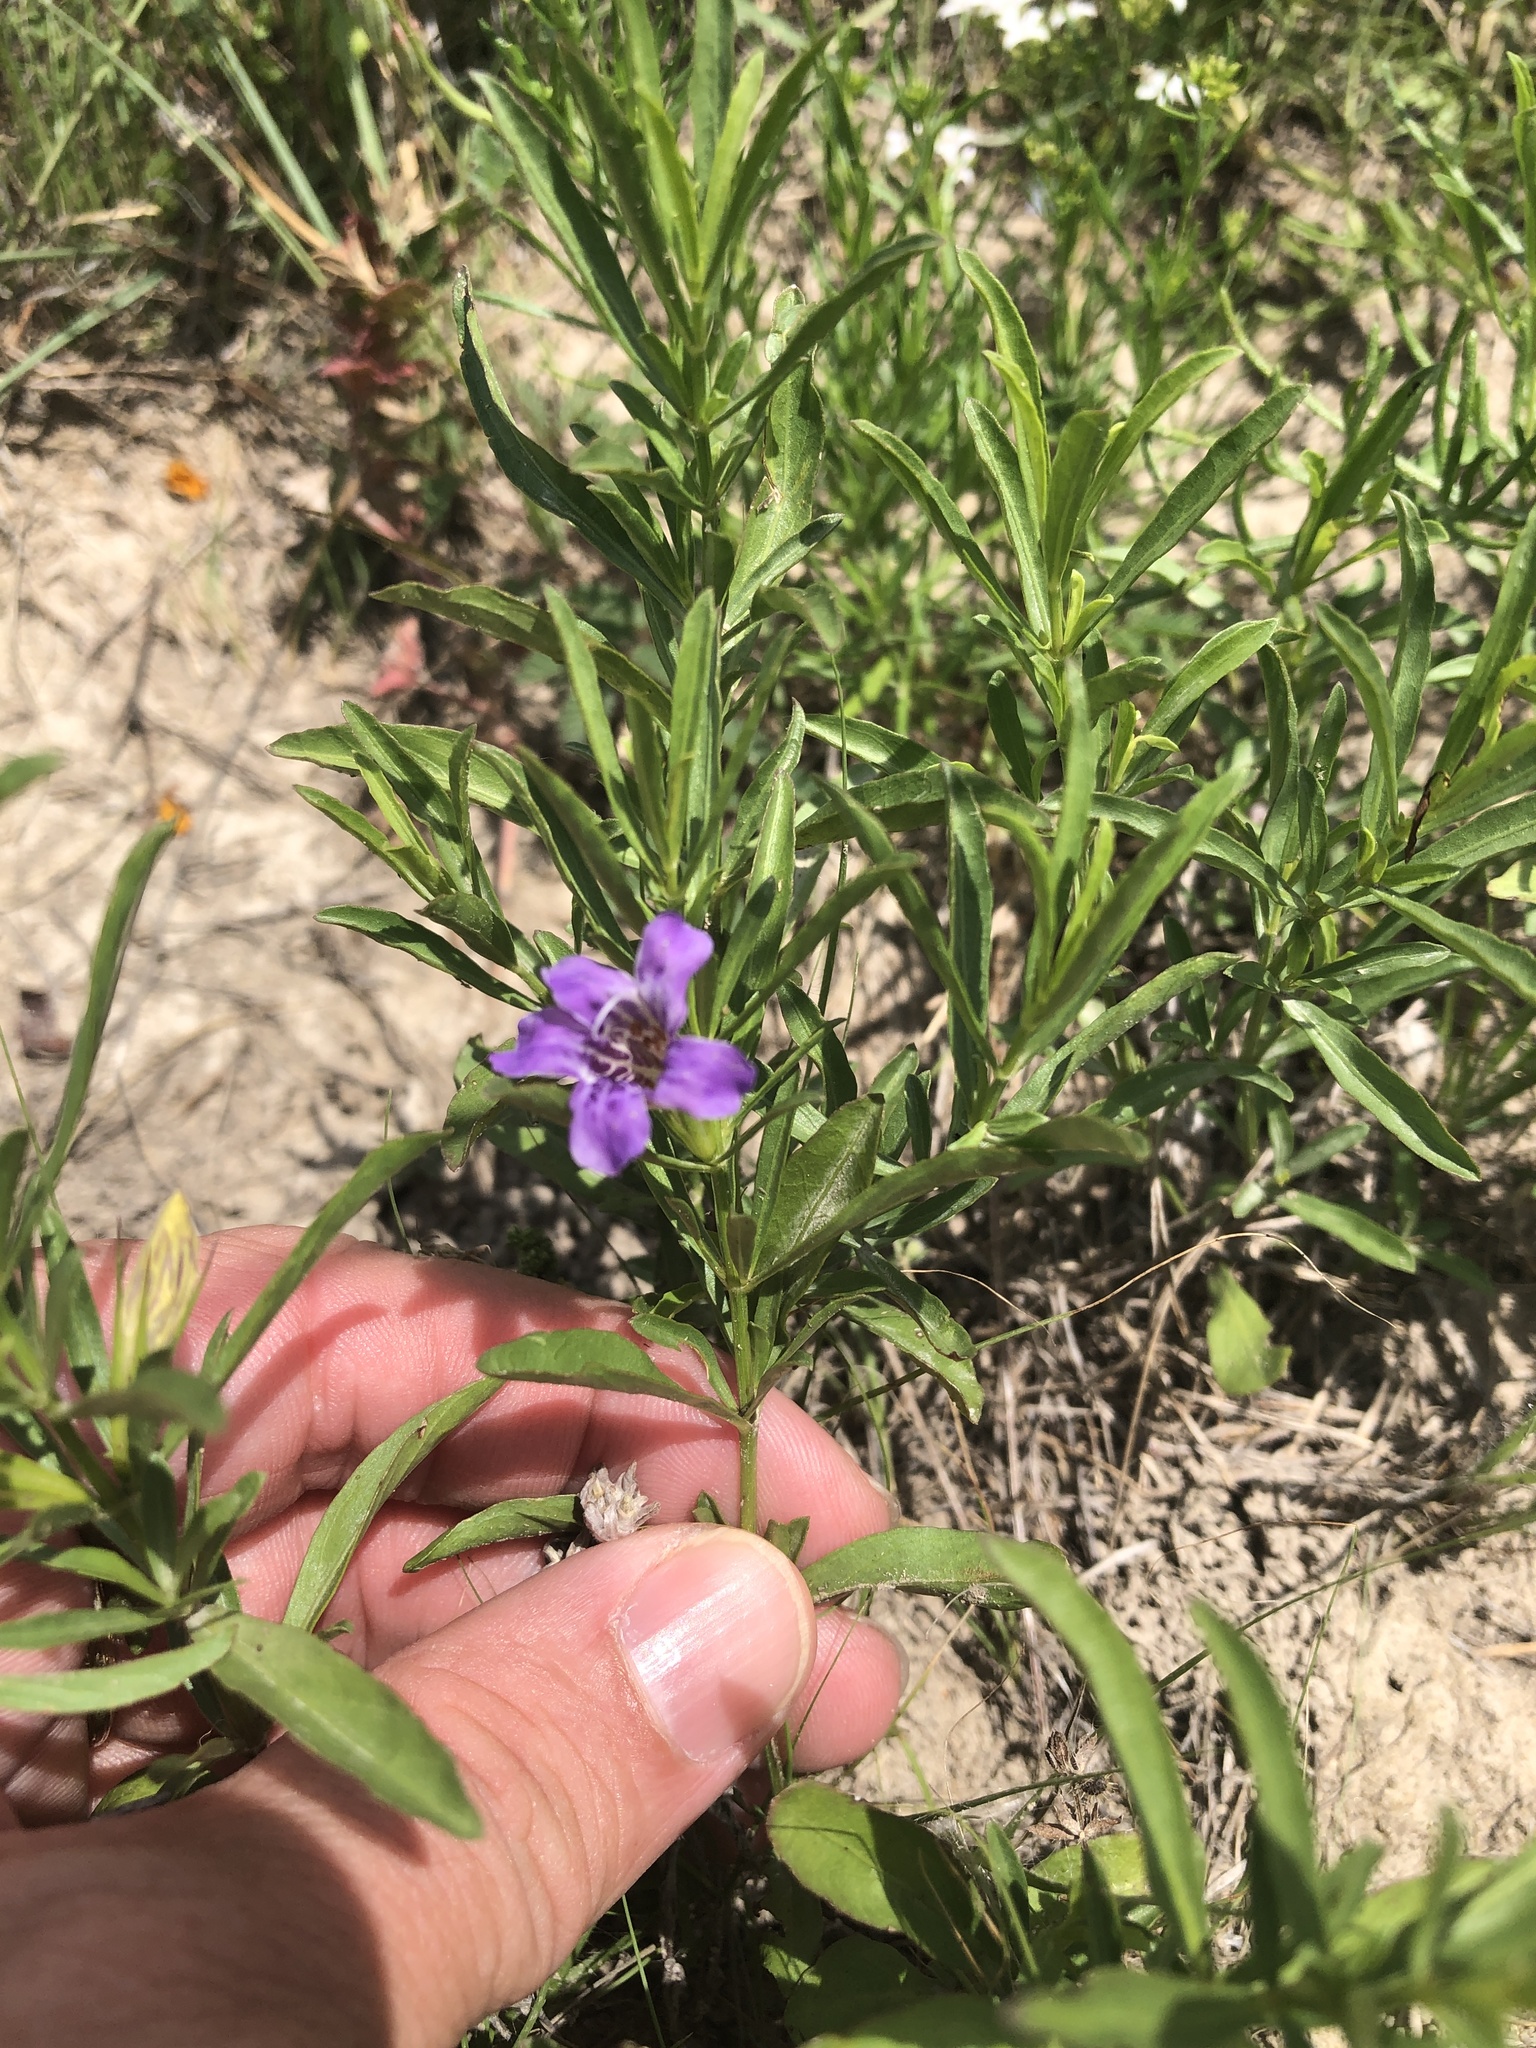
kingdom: Plantae
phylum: Tracheophyta
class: Magnoliopsida
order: Lamiales
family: Acanthaceae
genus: Dyschoriste
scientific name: Dyschoriste linearis
